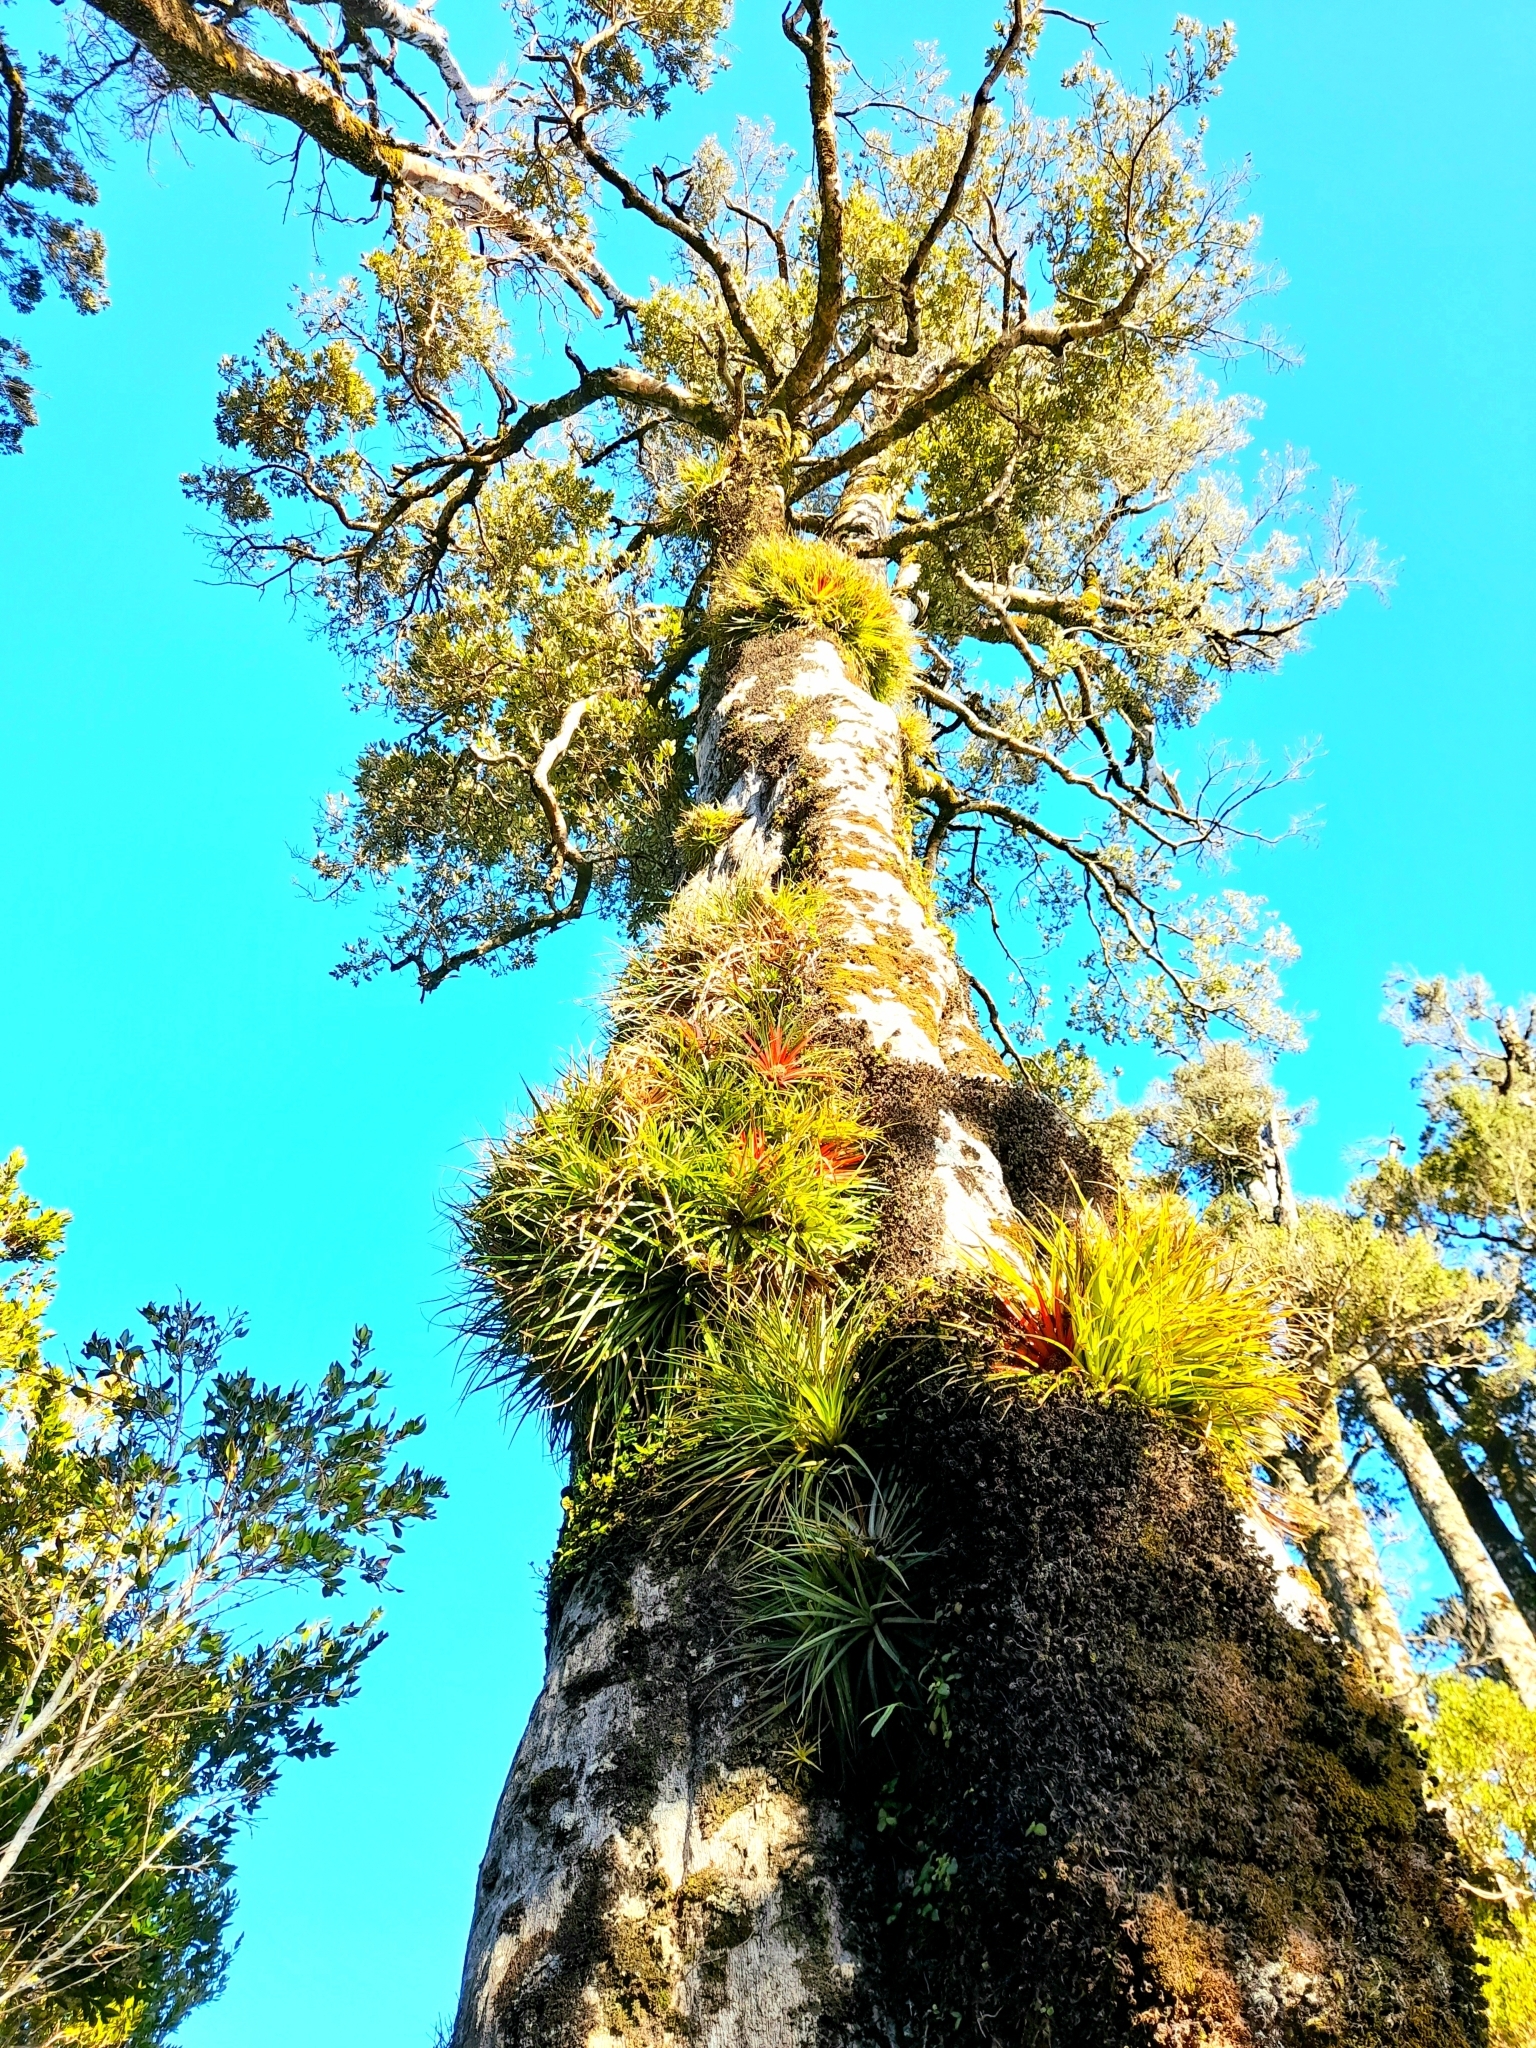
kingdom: Plantae
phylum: Tracheophyta
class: Liliopsida
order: Poales
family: Bromeliaceae
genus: Fascicularia
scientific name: Fascicularia bicolor
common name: Rhodostachys
